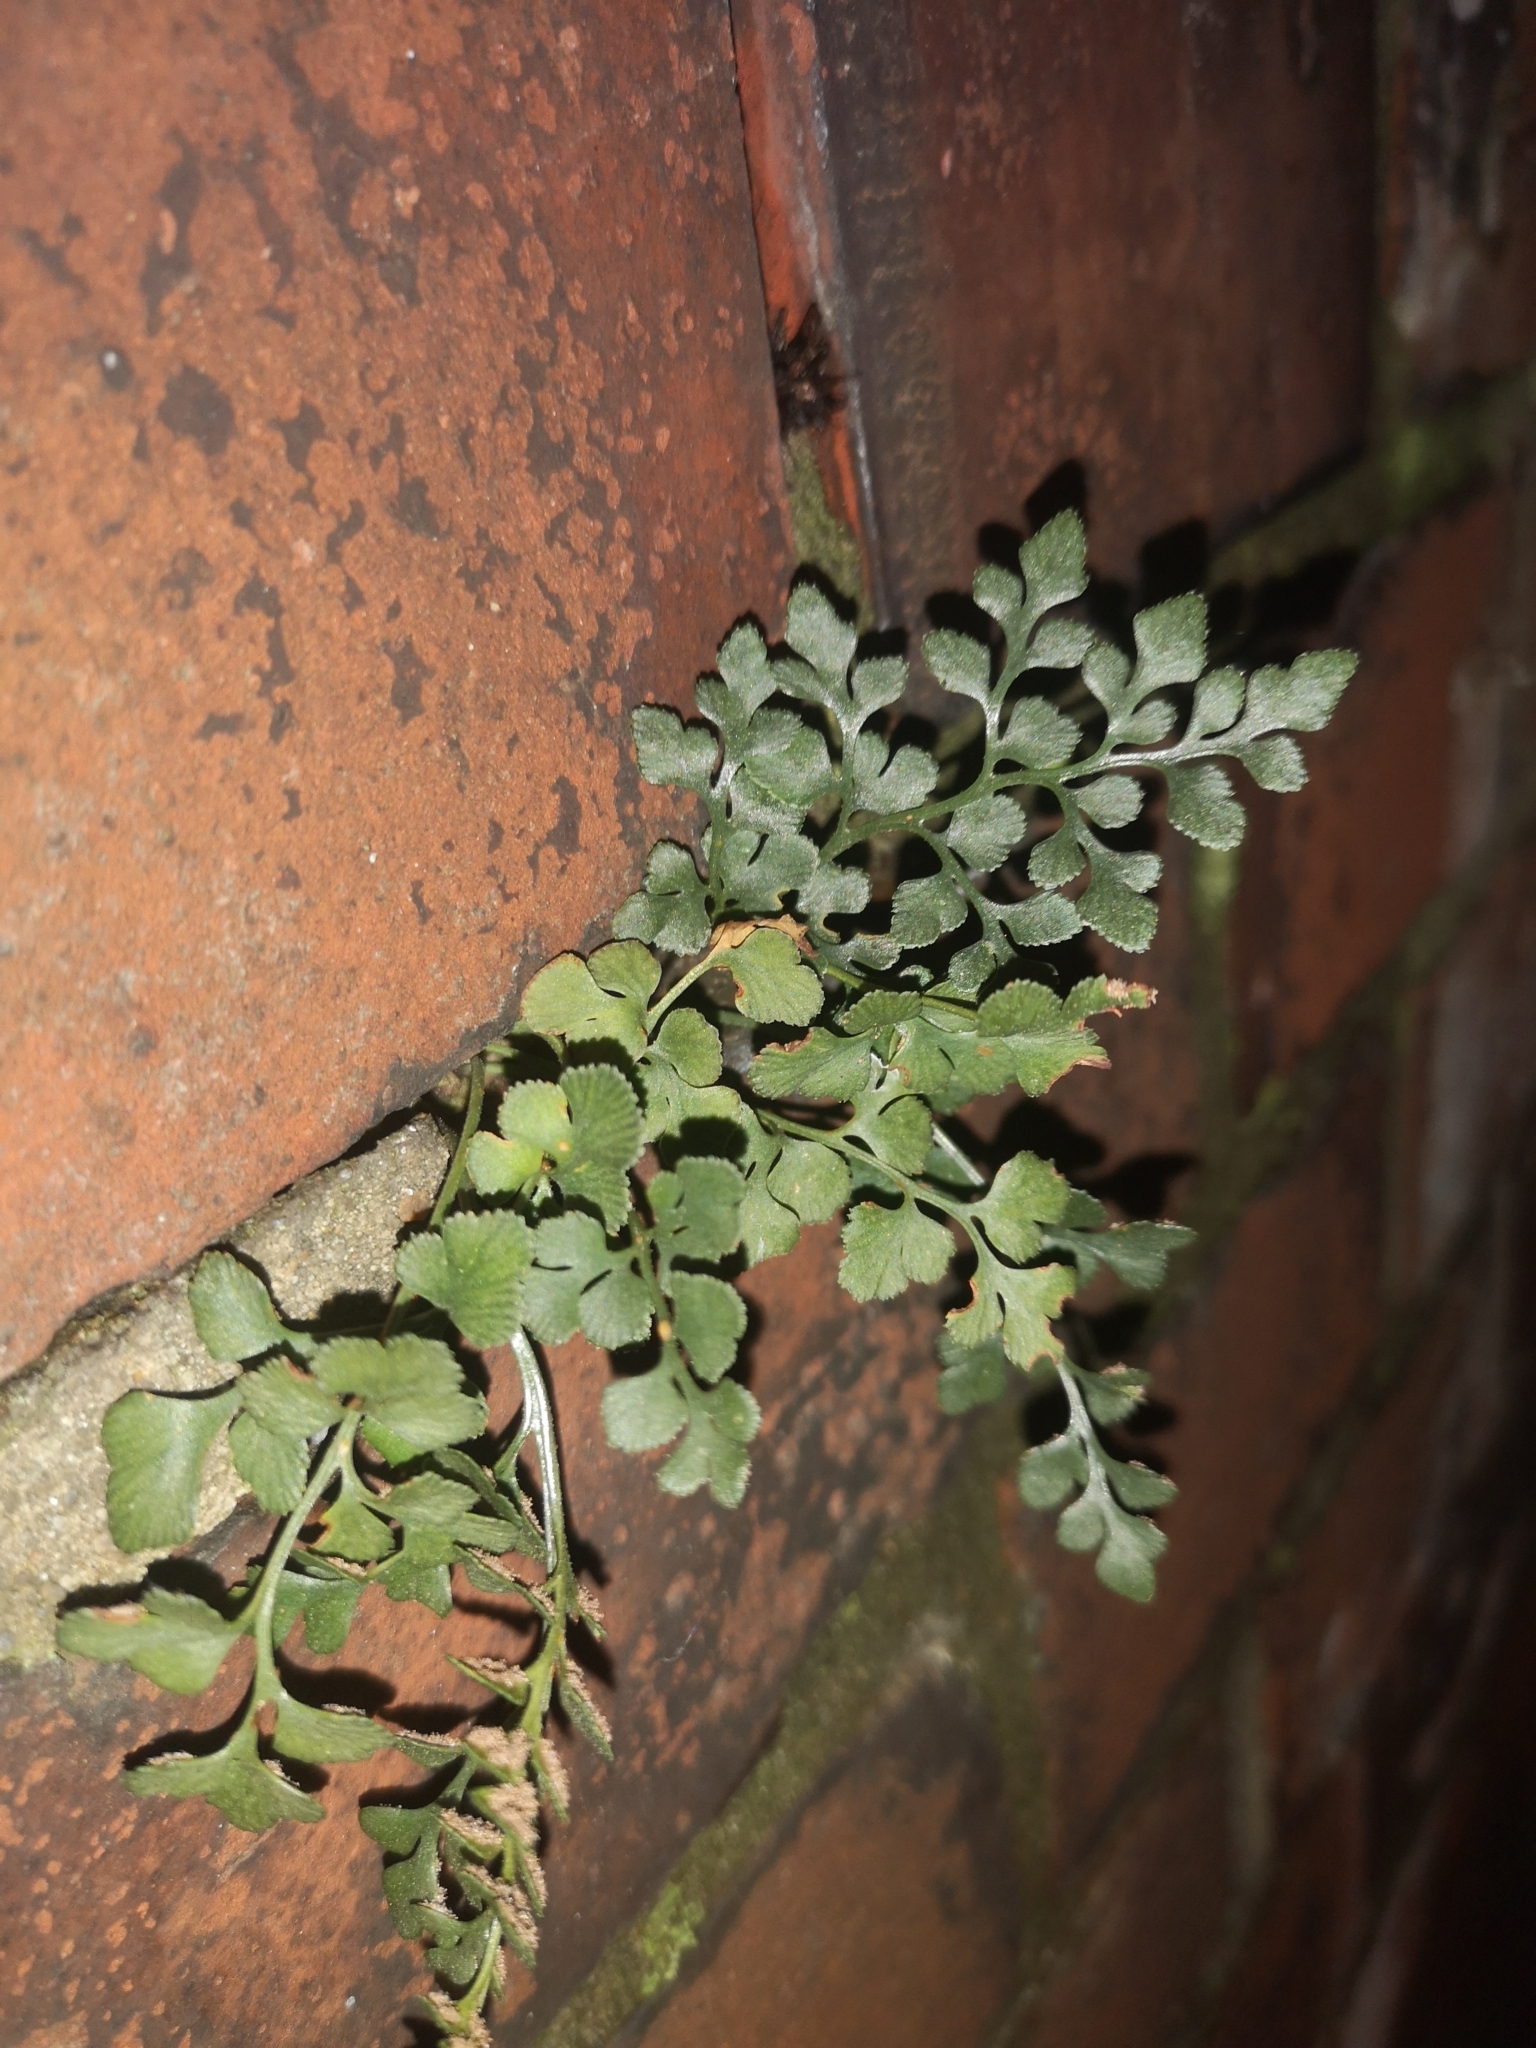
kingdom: Plantae
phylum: Tracheophyta
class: Polypodiopsida
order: Polypodiales
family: Aspleniaceae
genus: Asplenium
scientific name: Asplenium ruta-muraria
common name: Wall-rue
